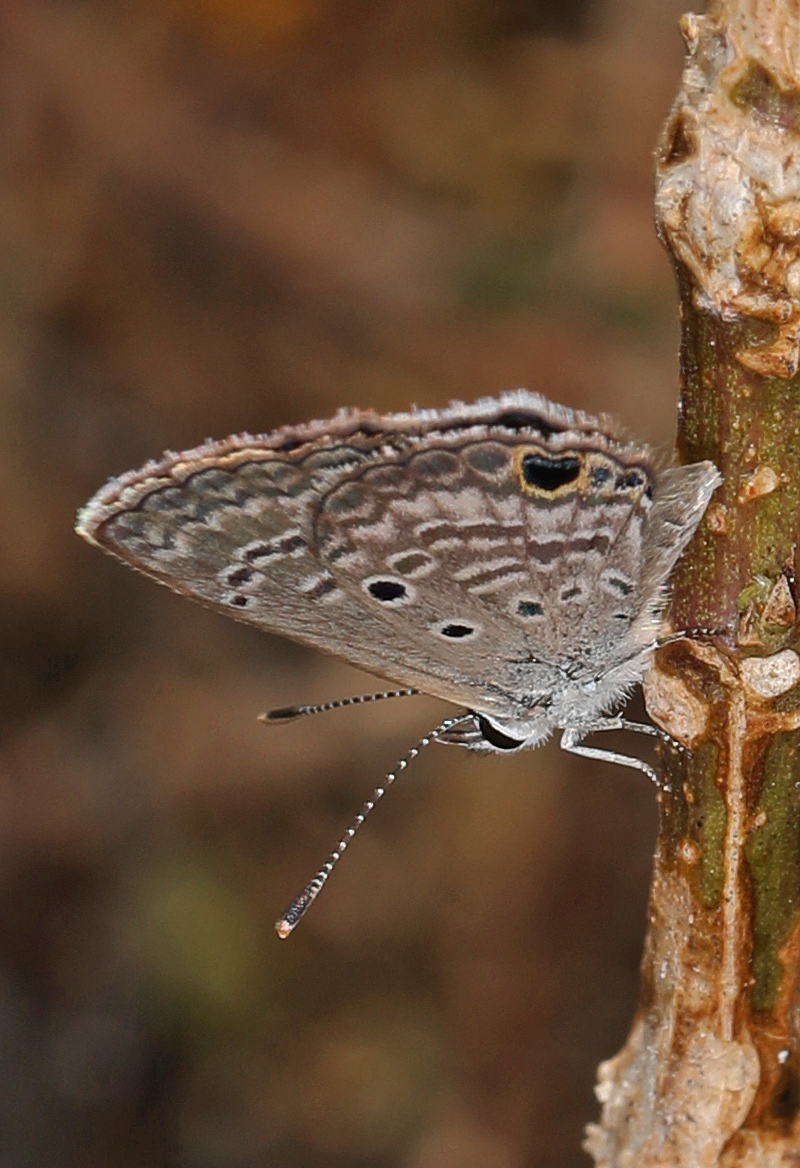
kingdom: Animalia
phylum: Arthropoda
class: Insecta
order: Lepidoptera
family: Lycaenidae
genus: Hemiargus
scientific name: Hemiargus ceraunus
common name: Ceraunus blue
